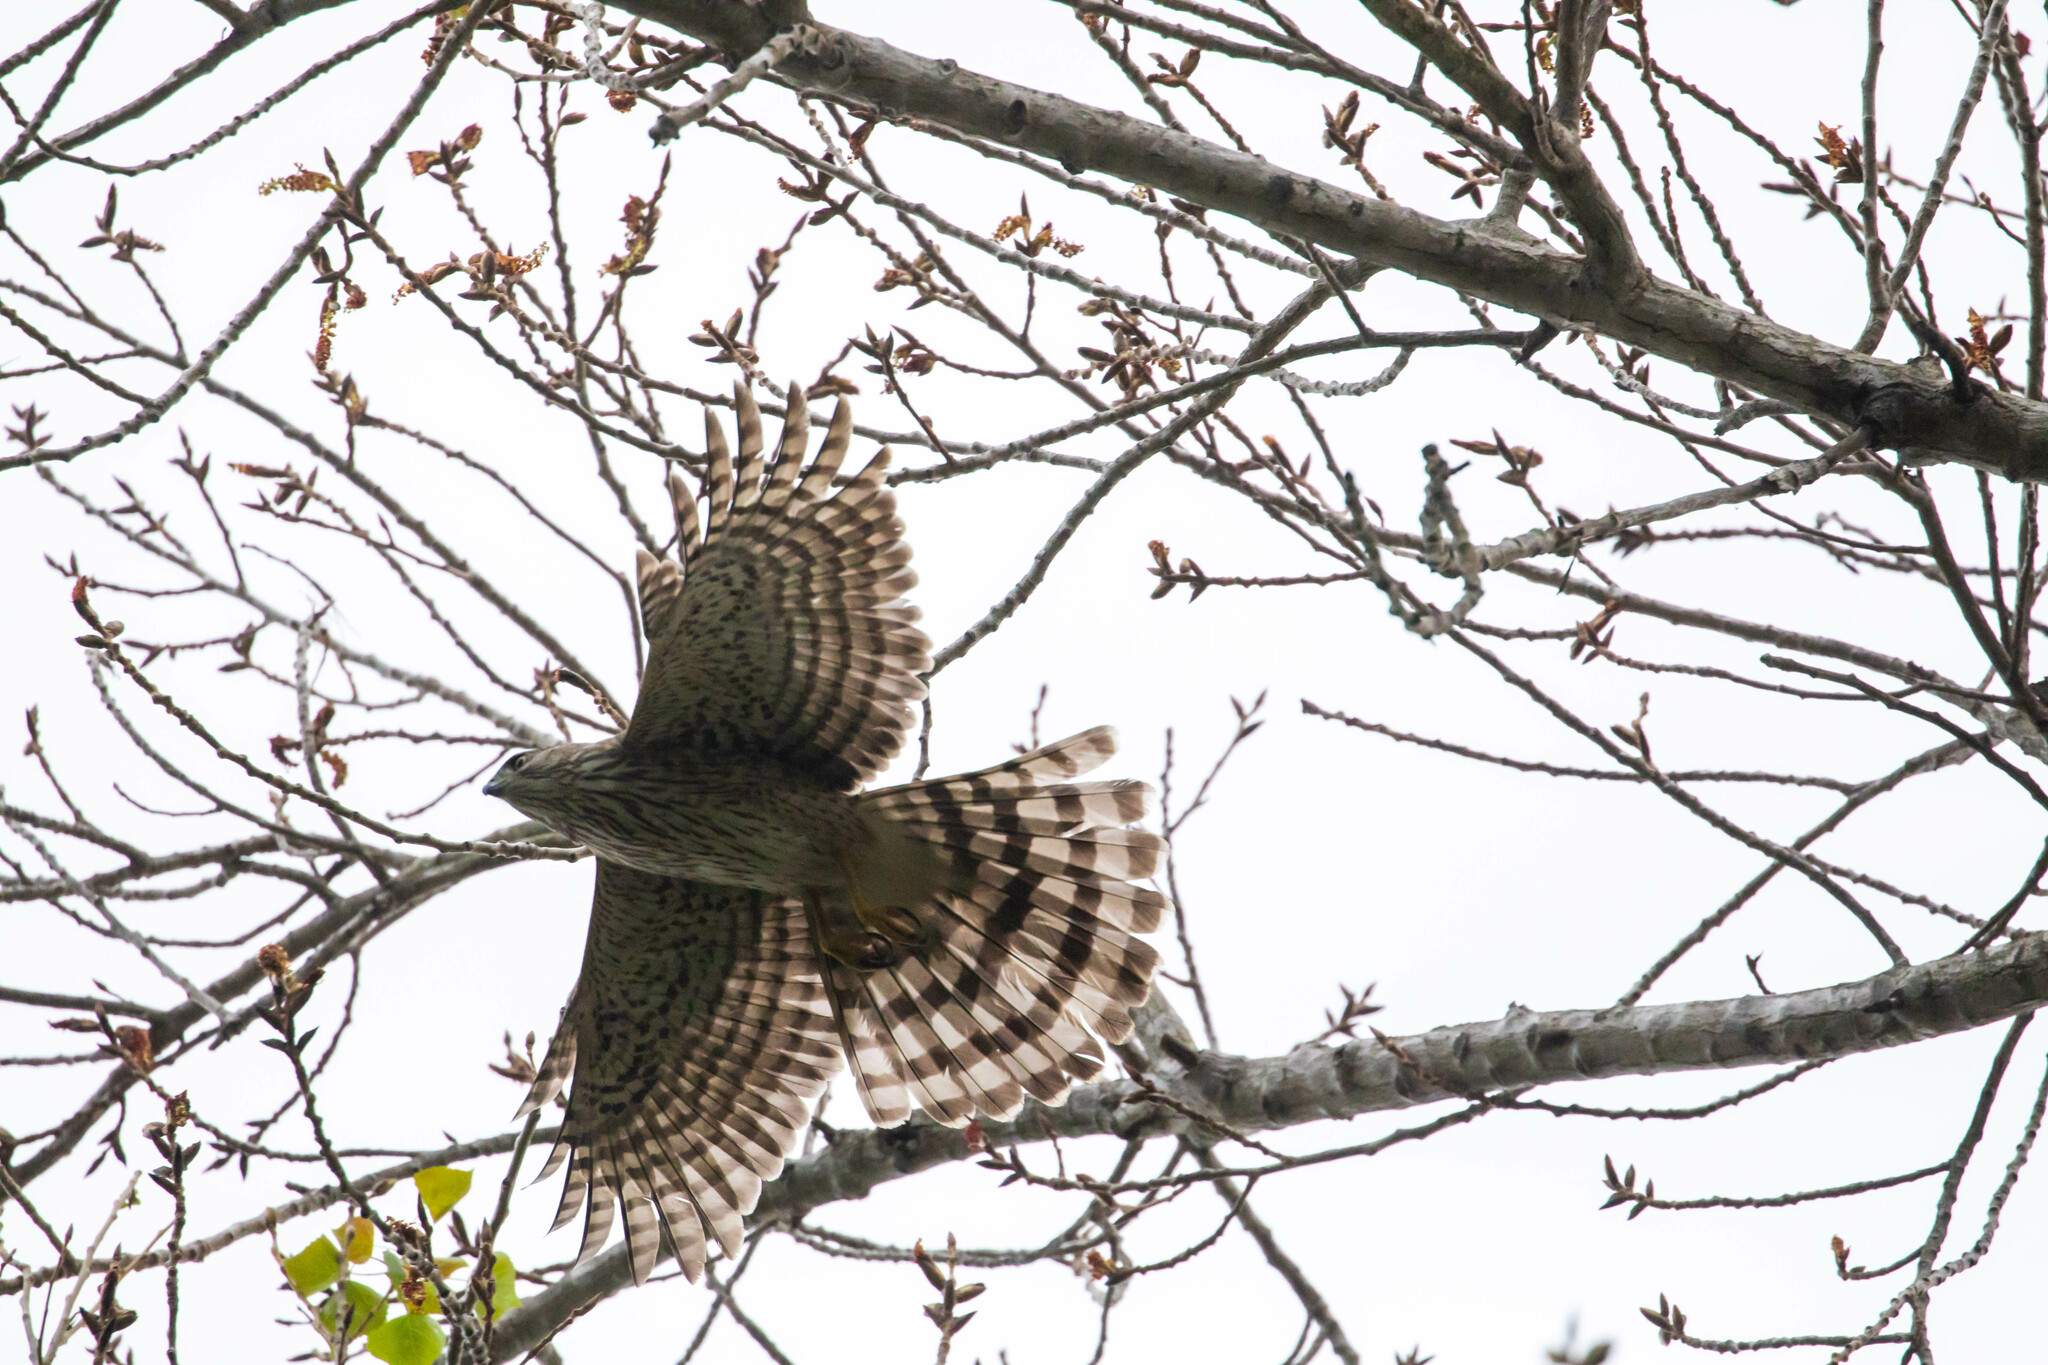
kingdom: Animalia
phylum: Chordata
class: Aves
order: Accipitriformes
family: Accipitridae
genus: Accipiter
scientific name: Accipiter cooperii
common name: Cooper's hawk
